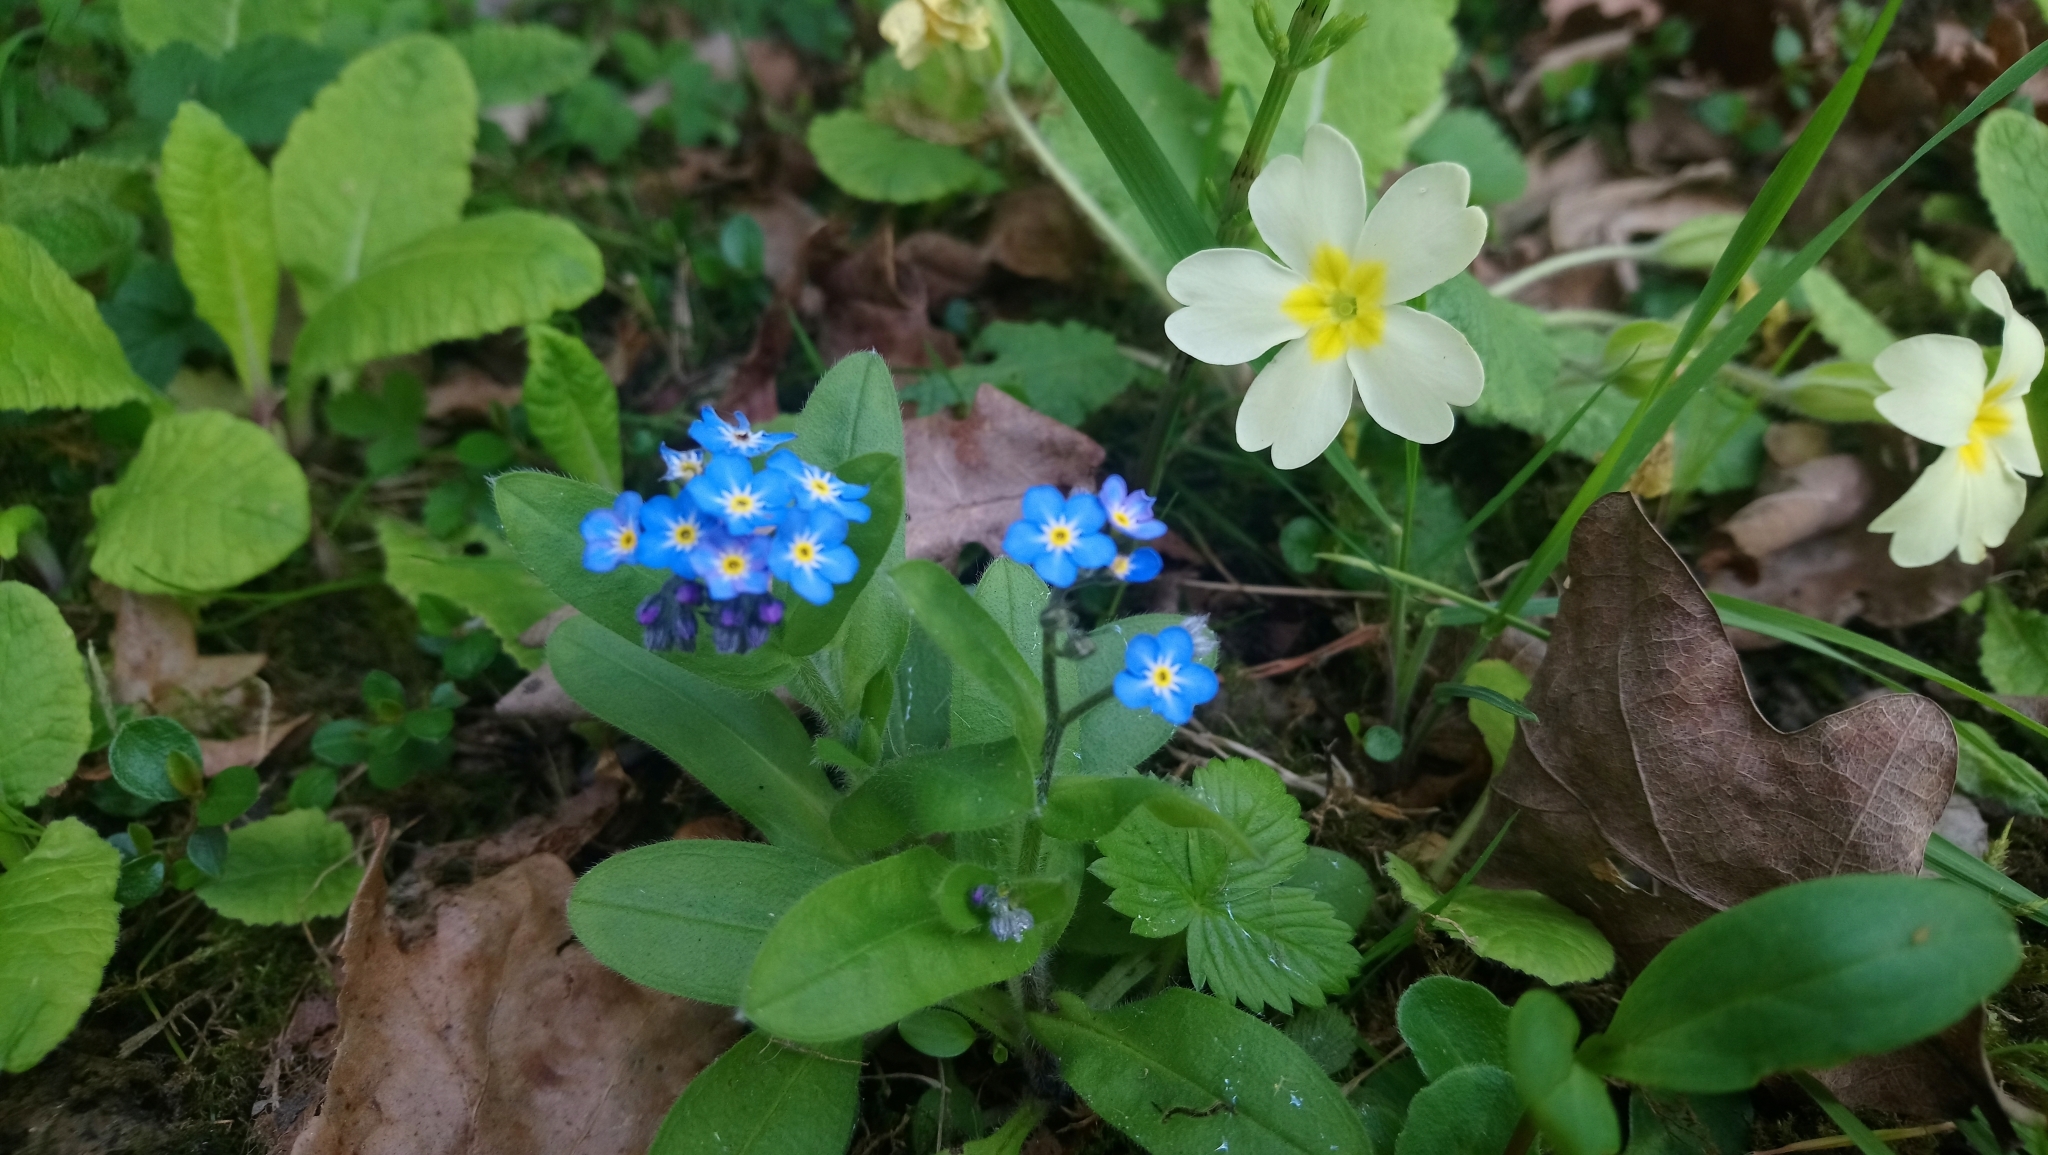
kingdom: Plantae
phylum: Tracheophyta
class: Magnoliopsida
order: Boraginales
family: Boraginaceae
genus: Myosotis
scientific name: Myosotis sylvatica
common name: Wood forget-me-not
